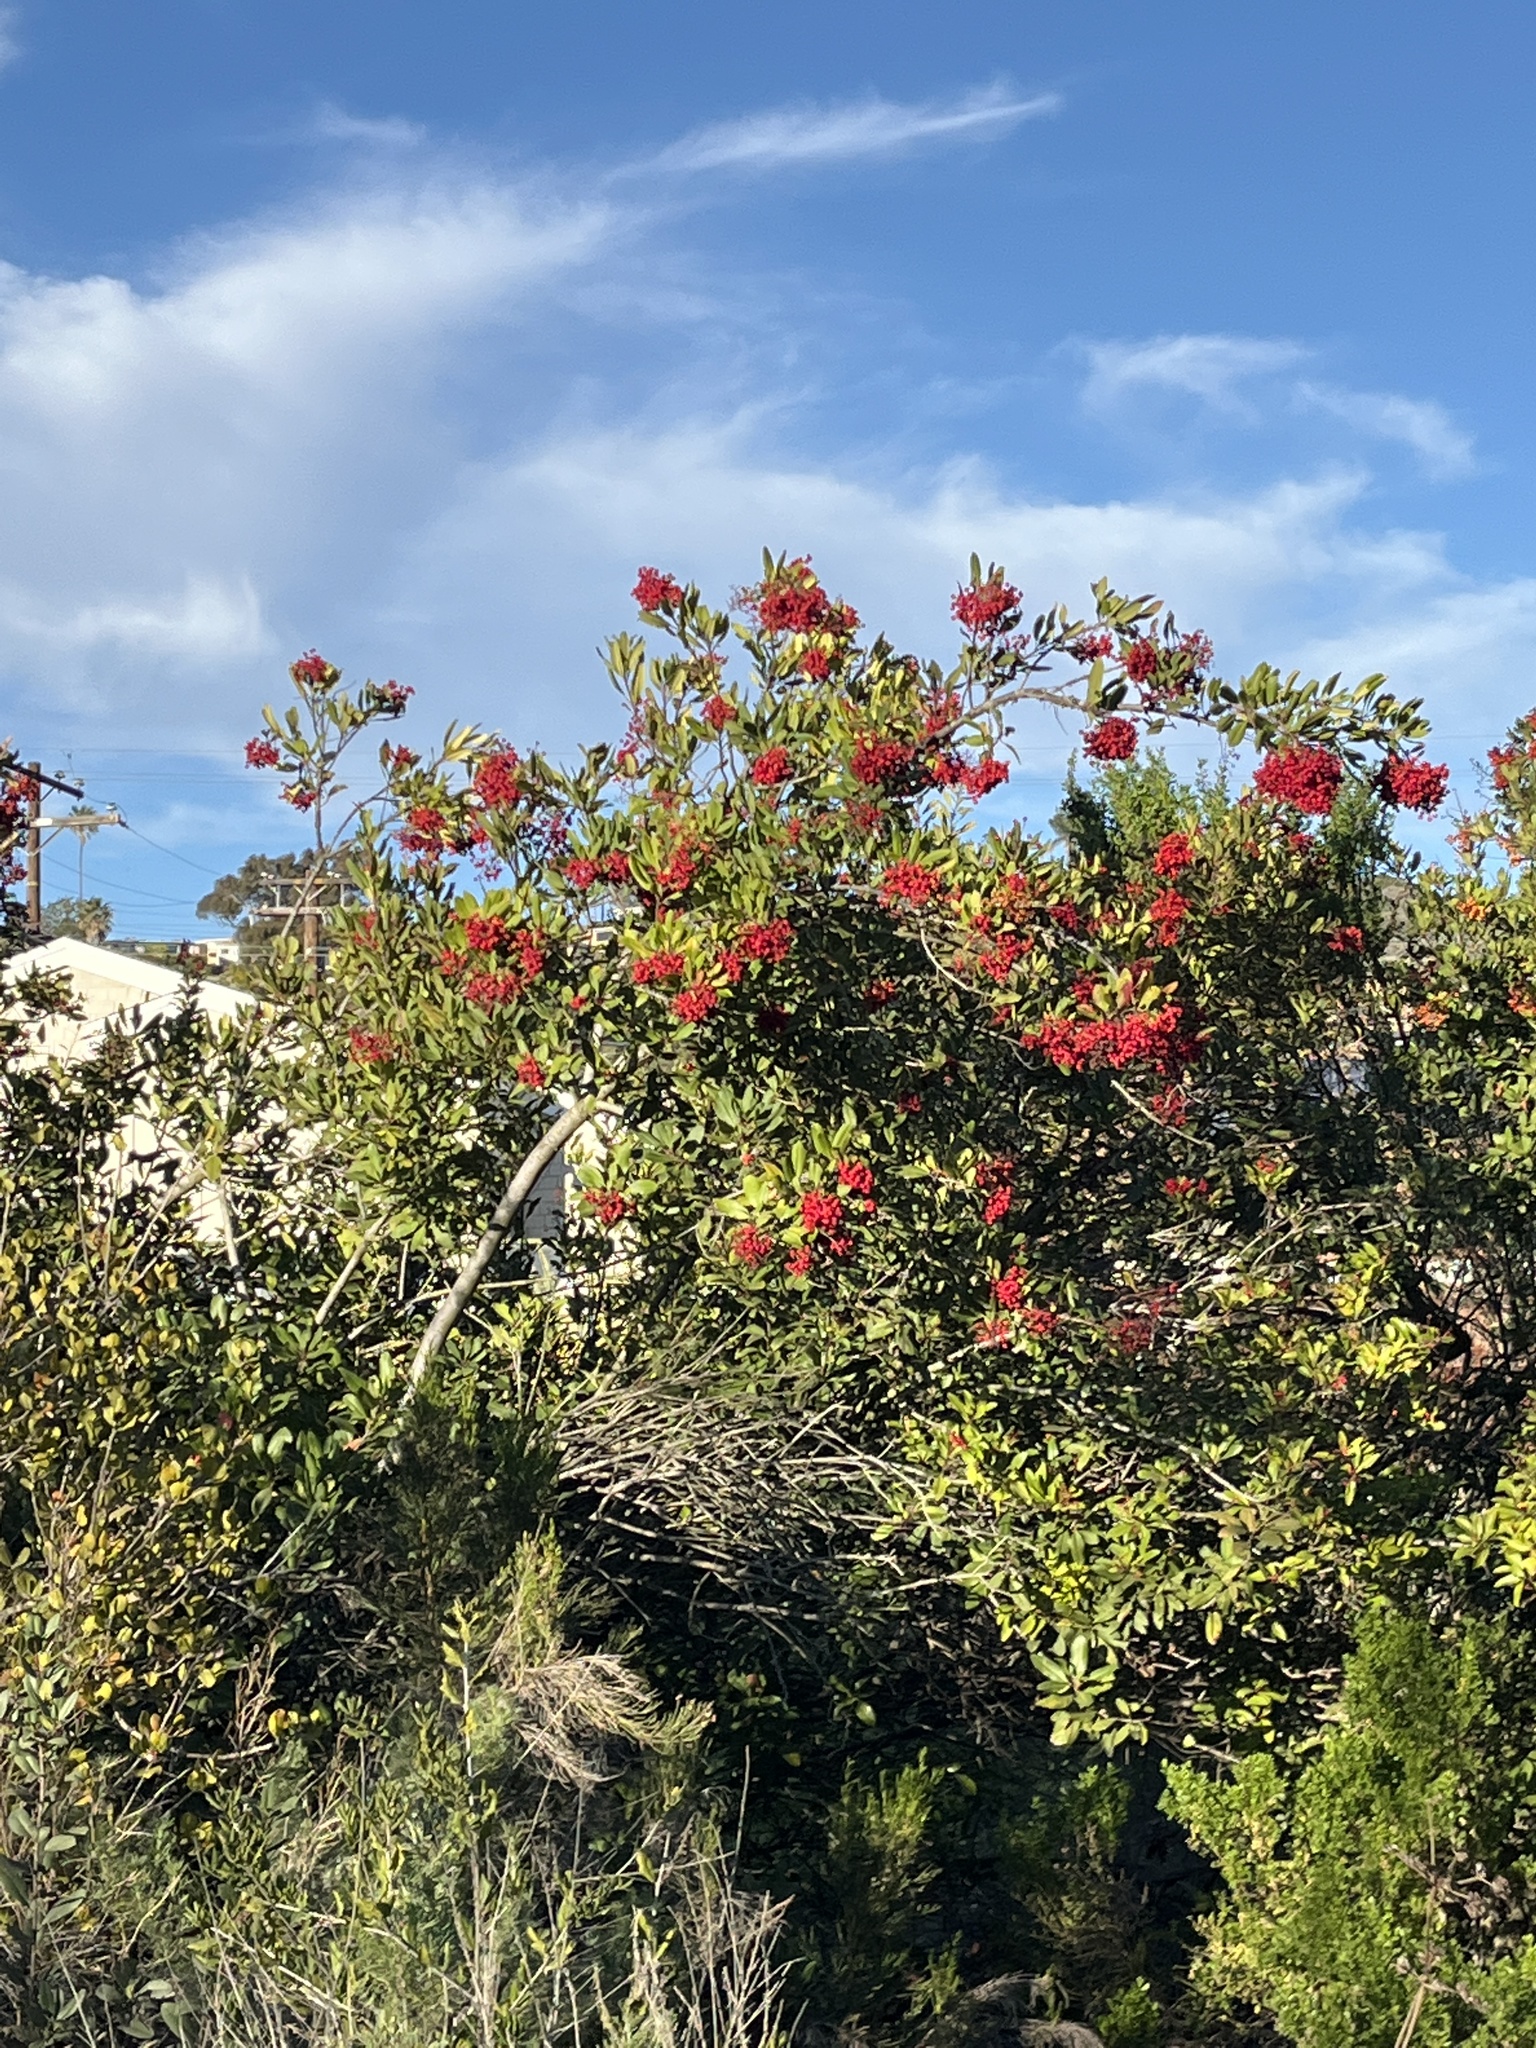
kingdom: Plantae
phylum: Tracheophyta
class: Magnoliopsida
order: Rosales
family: Rosaceae
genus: Heteromeles
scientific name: Heteromeles arbutifolia
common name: California-holly
